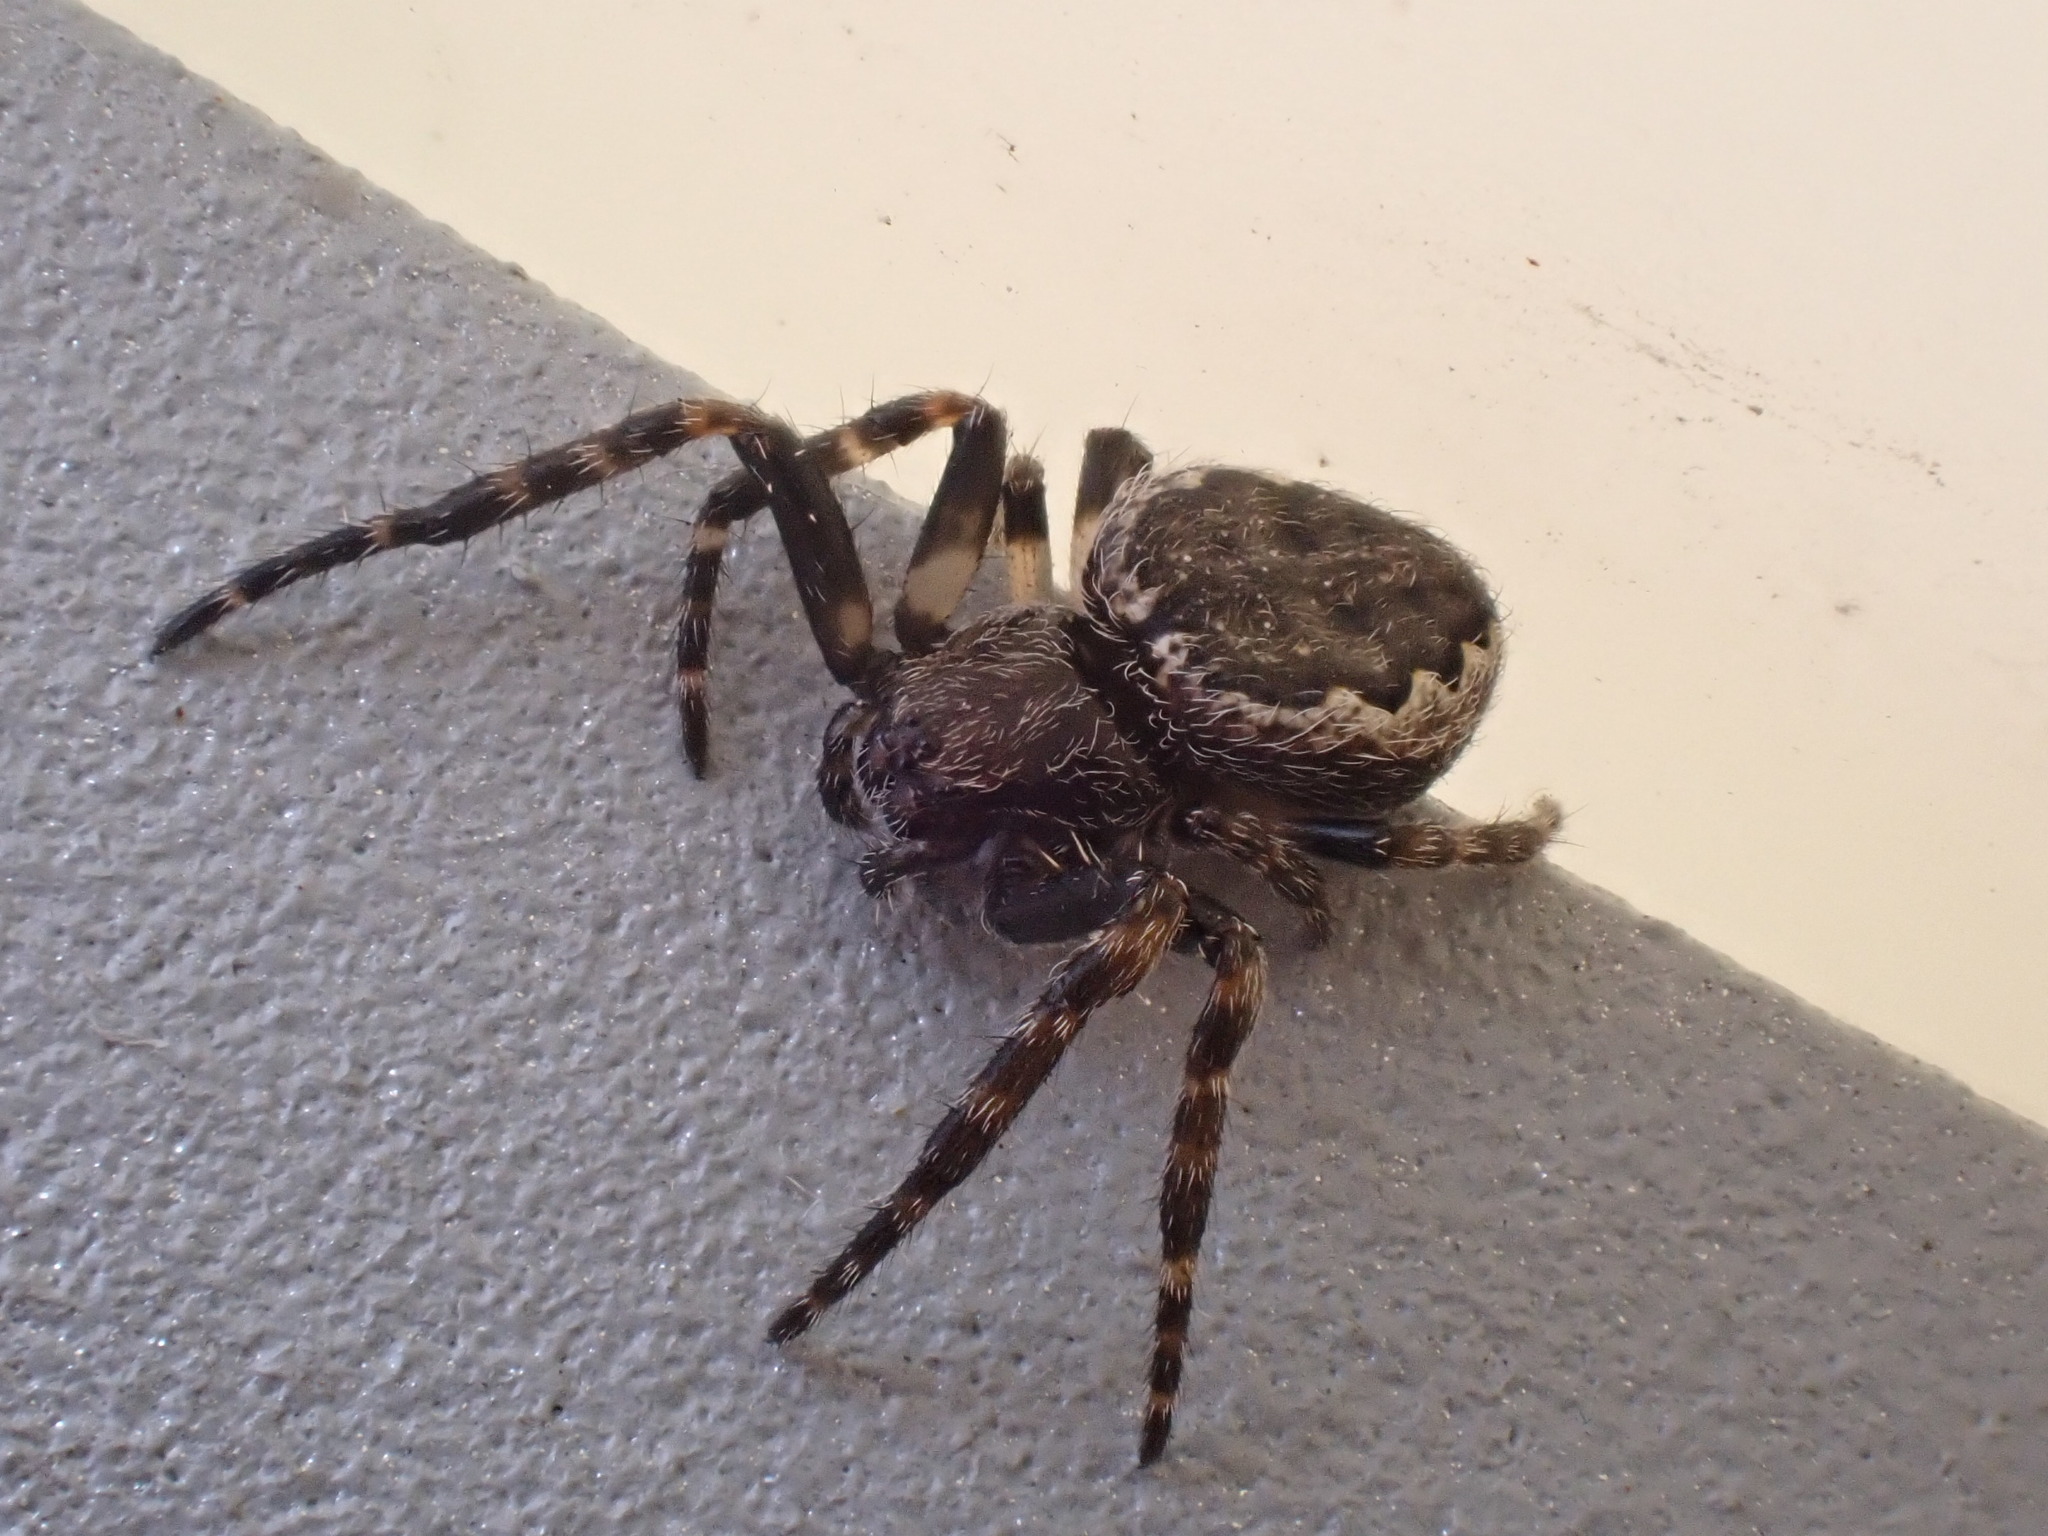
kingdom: Animalia
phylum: Arthropoda
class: Arachnida
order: Araneae
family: Araneidae
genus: Nuctenea
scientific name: Nuctenea umbratica
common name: Toad spider
